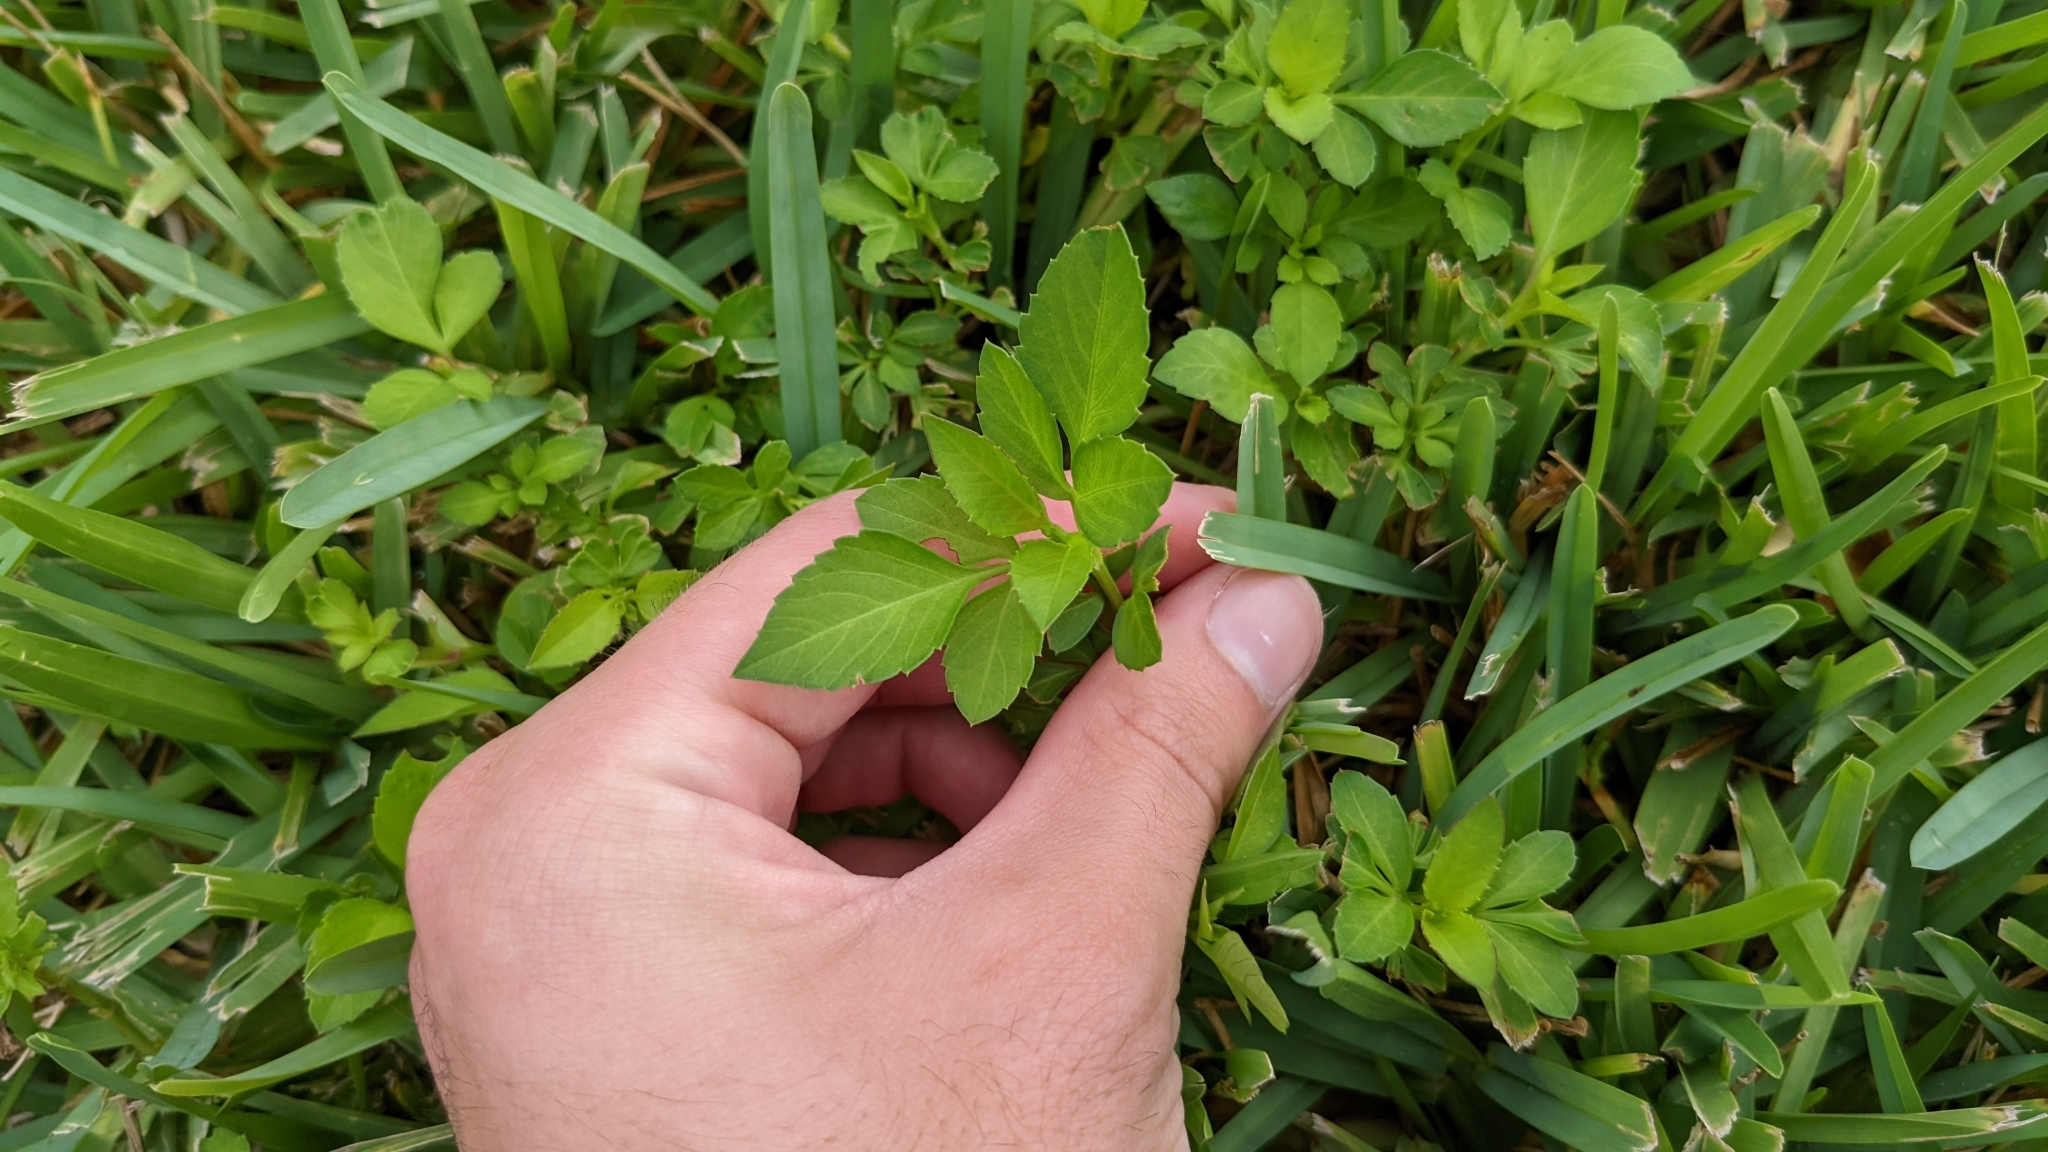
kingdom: Plantae
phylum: Tracheophyta
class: Magnoliopsida
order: Asterales
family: Asteraceae
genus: Bidens
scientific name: Bidens alba
